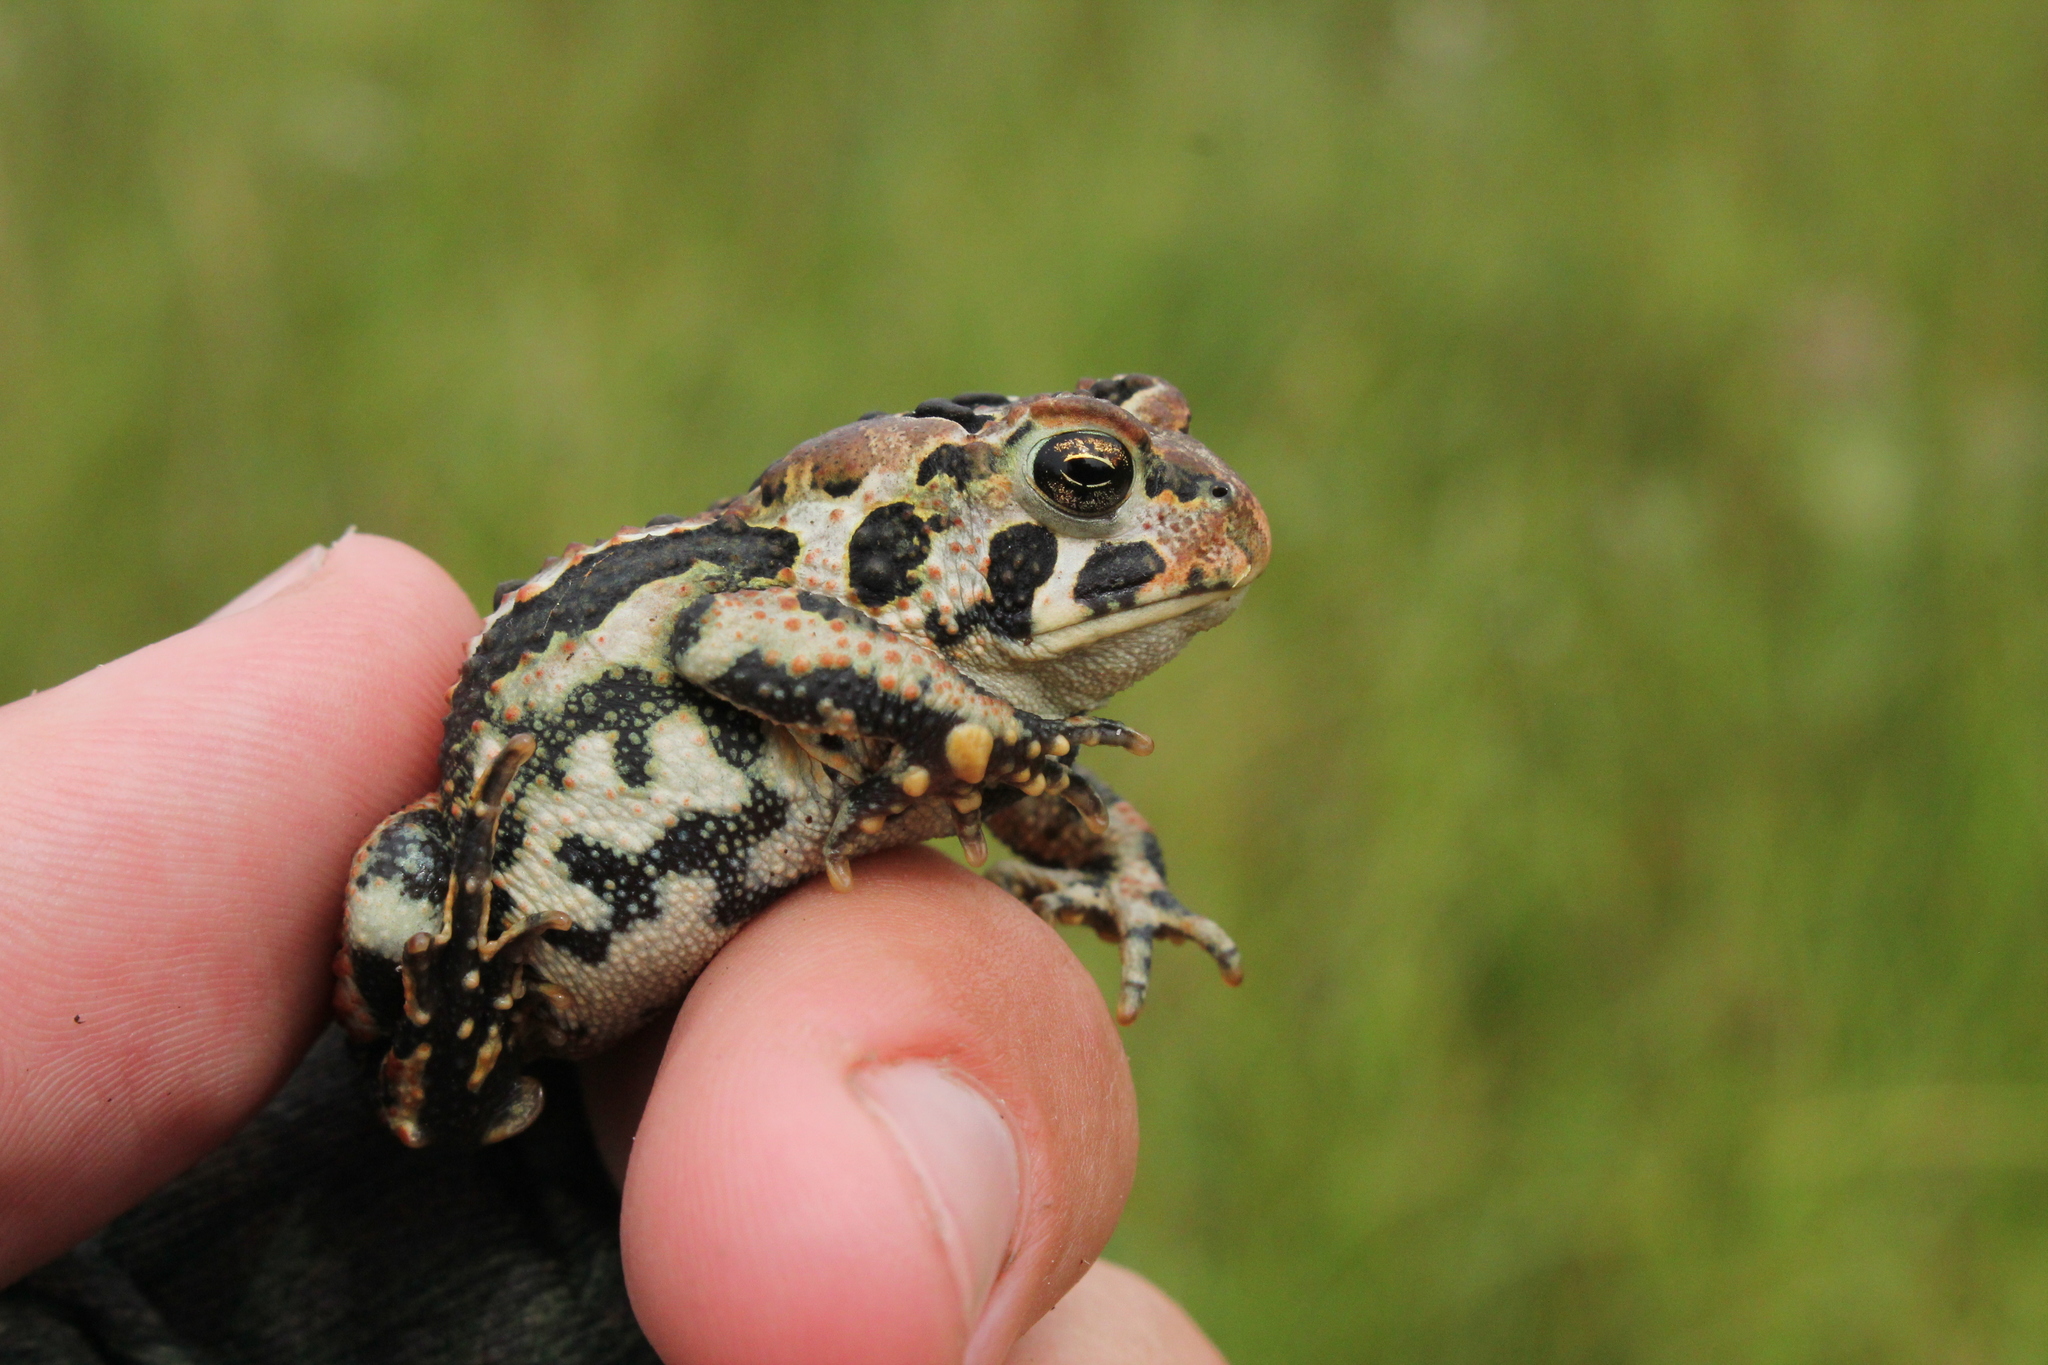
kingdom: Animalia
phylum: Chordata
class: Amphibia
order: Anura
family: Bufonidae
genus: Anaxyrus
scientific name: Anaxyrus americanus
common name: American toad
